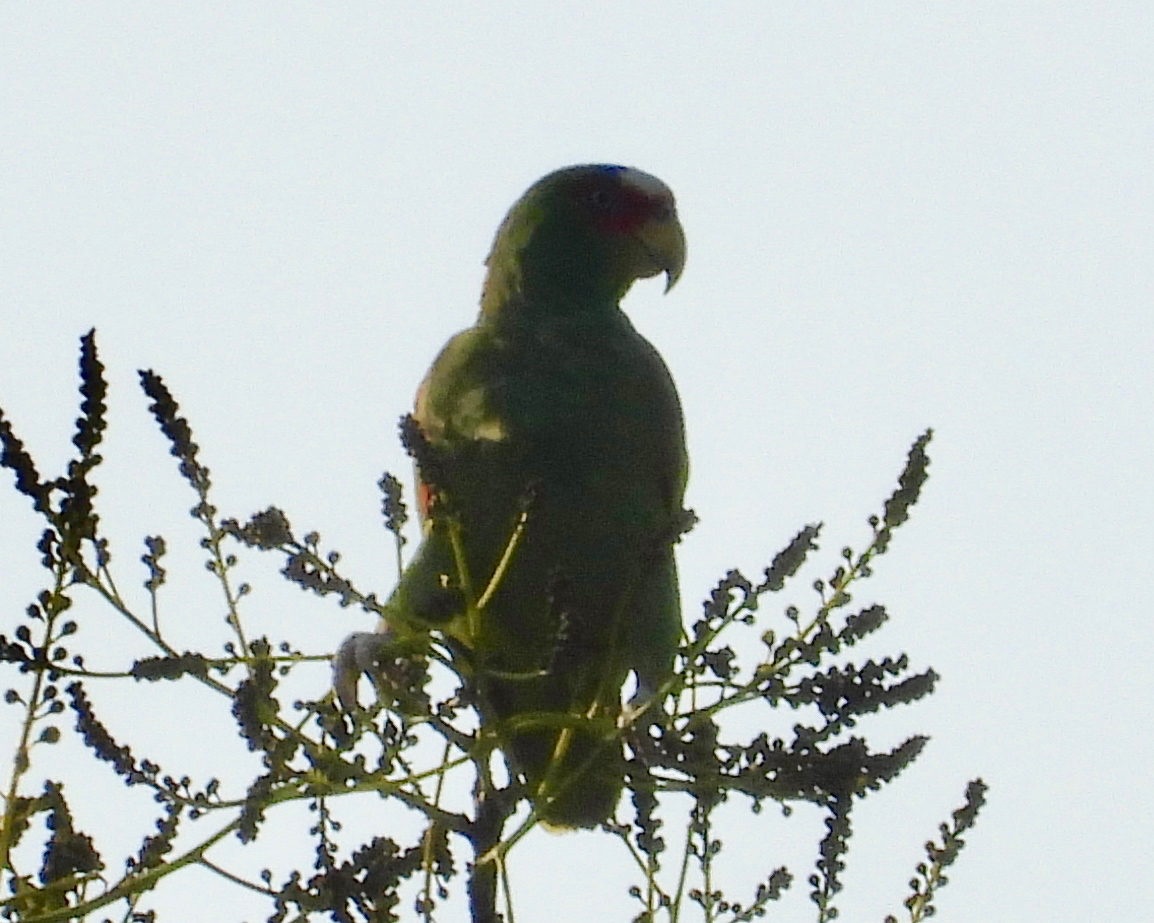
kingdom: Animalia
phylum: Chordata
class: Aves
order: Psittaciformes
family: Psittacidae
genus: Amazona
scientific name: Amazona albifrons
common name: White-fronted amazon
